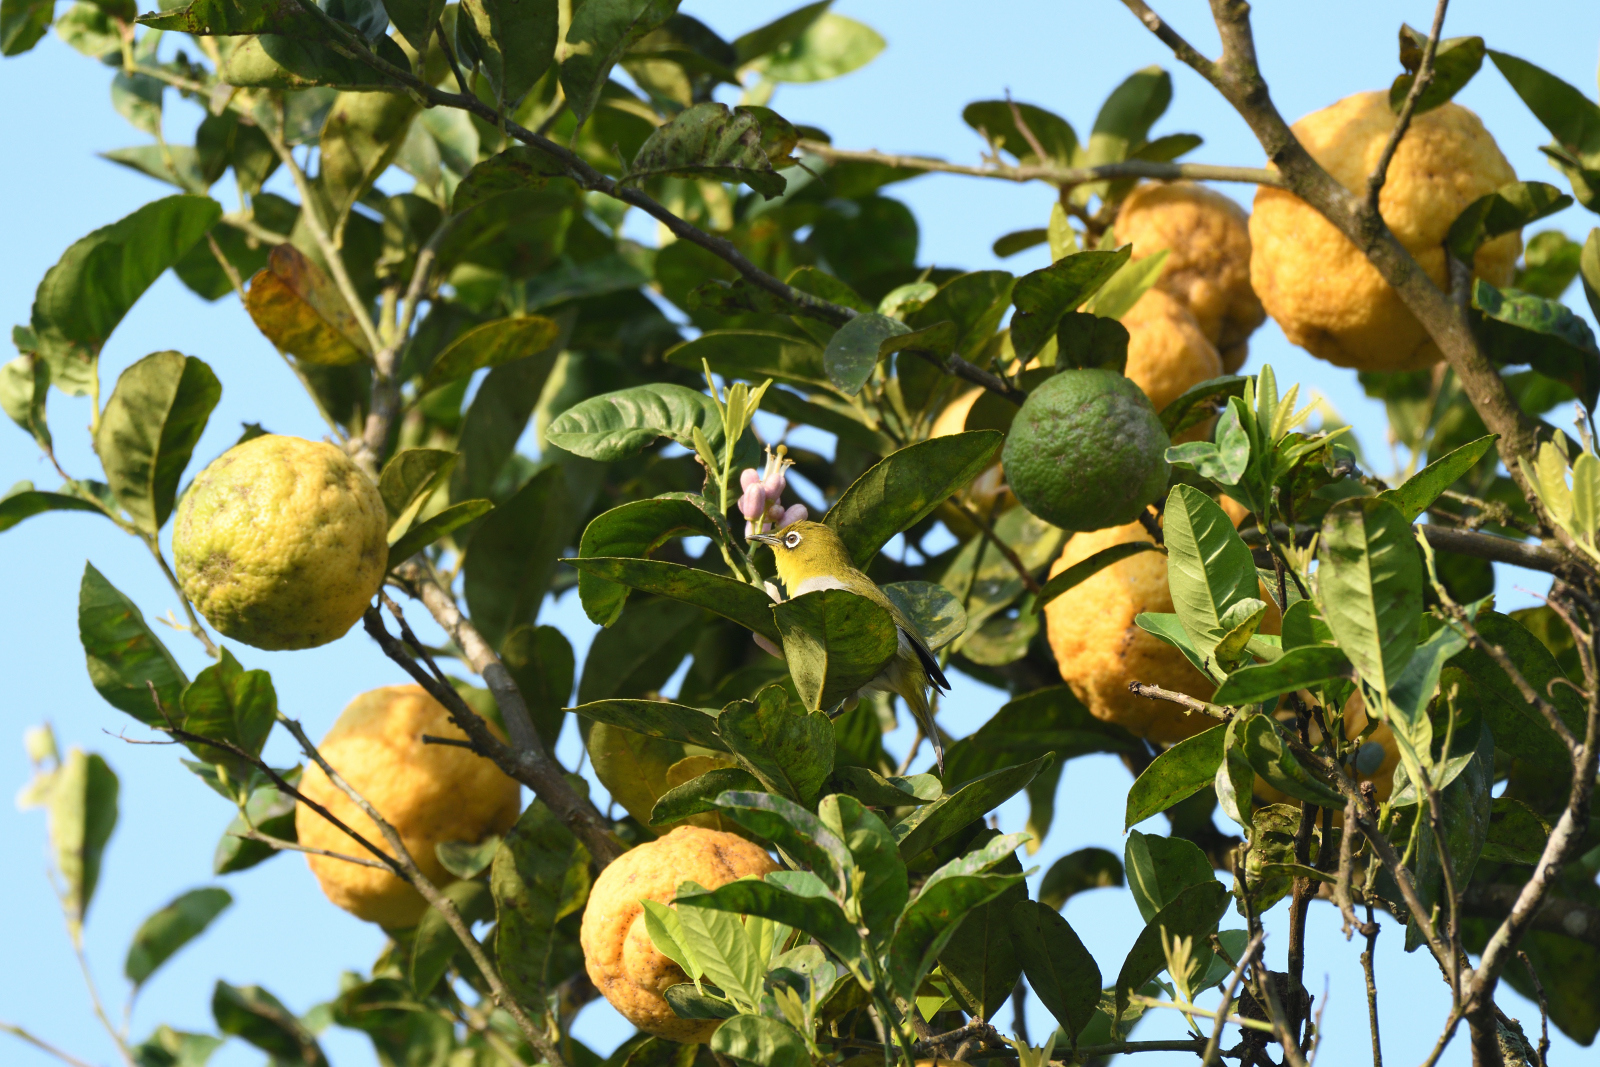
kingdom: Animalia
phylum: Chordata
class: Aves
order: Passeriformes
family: Zosteropidae
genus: Zosterops
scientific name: Zosterops palpebrosus
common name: Oriental white-eye
